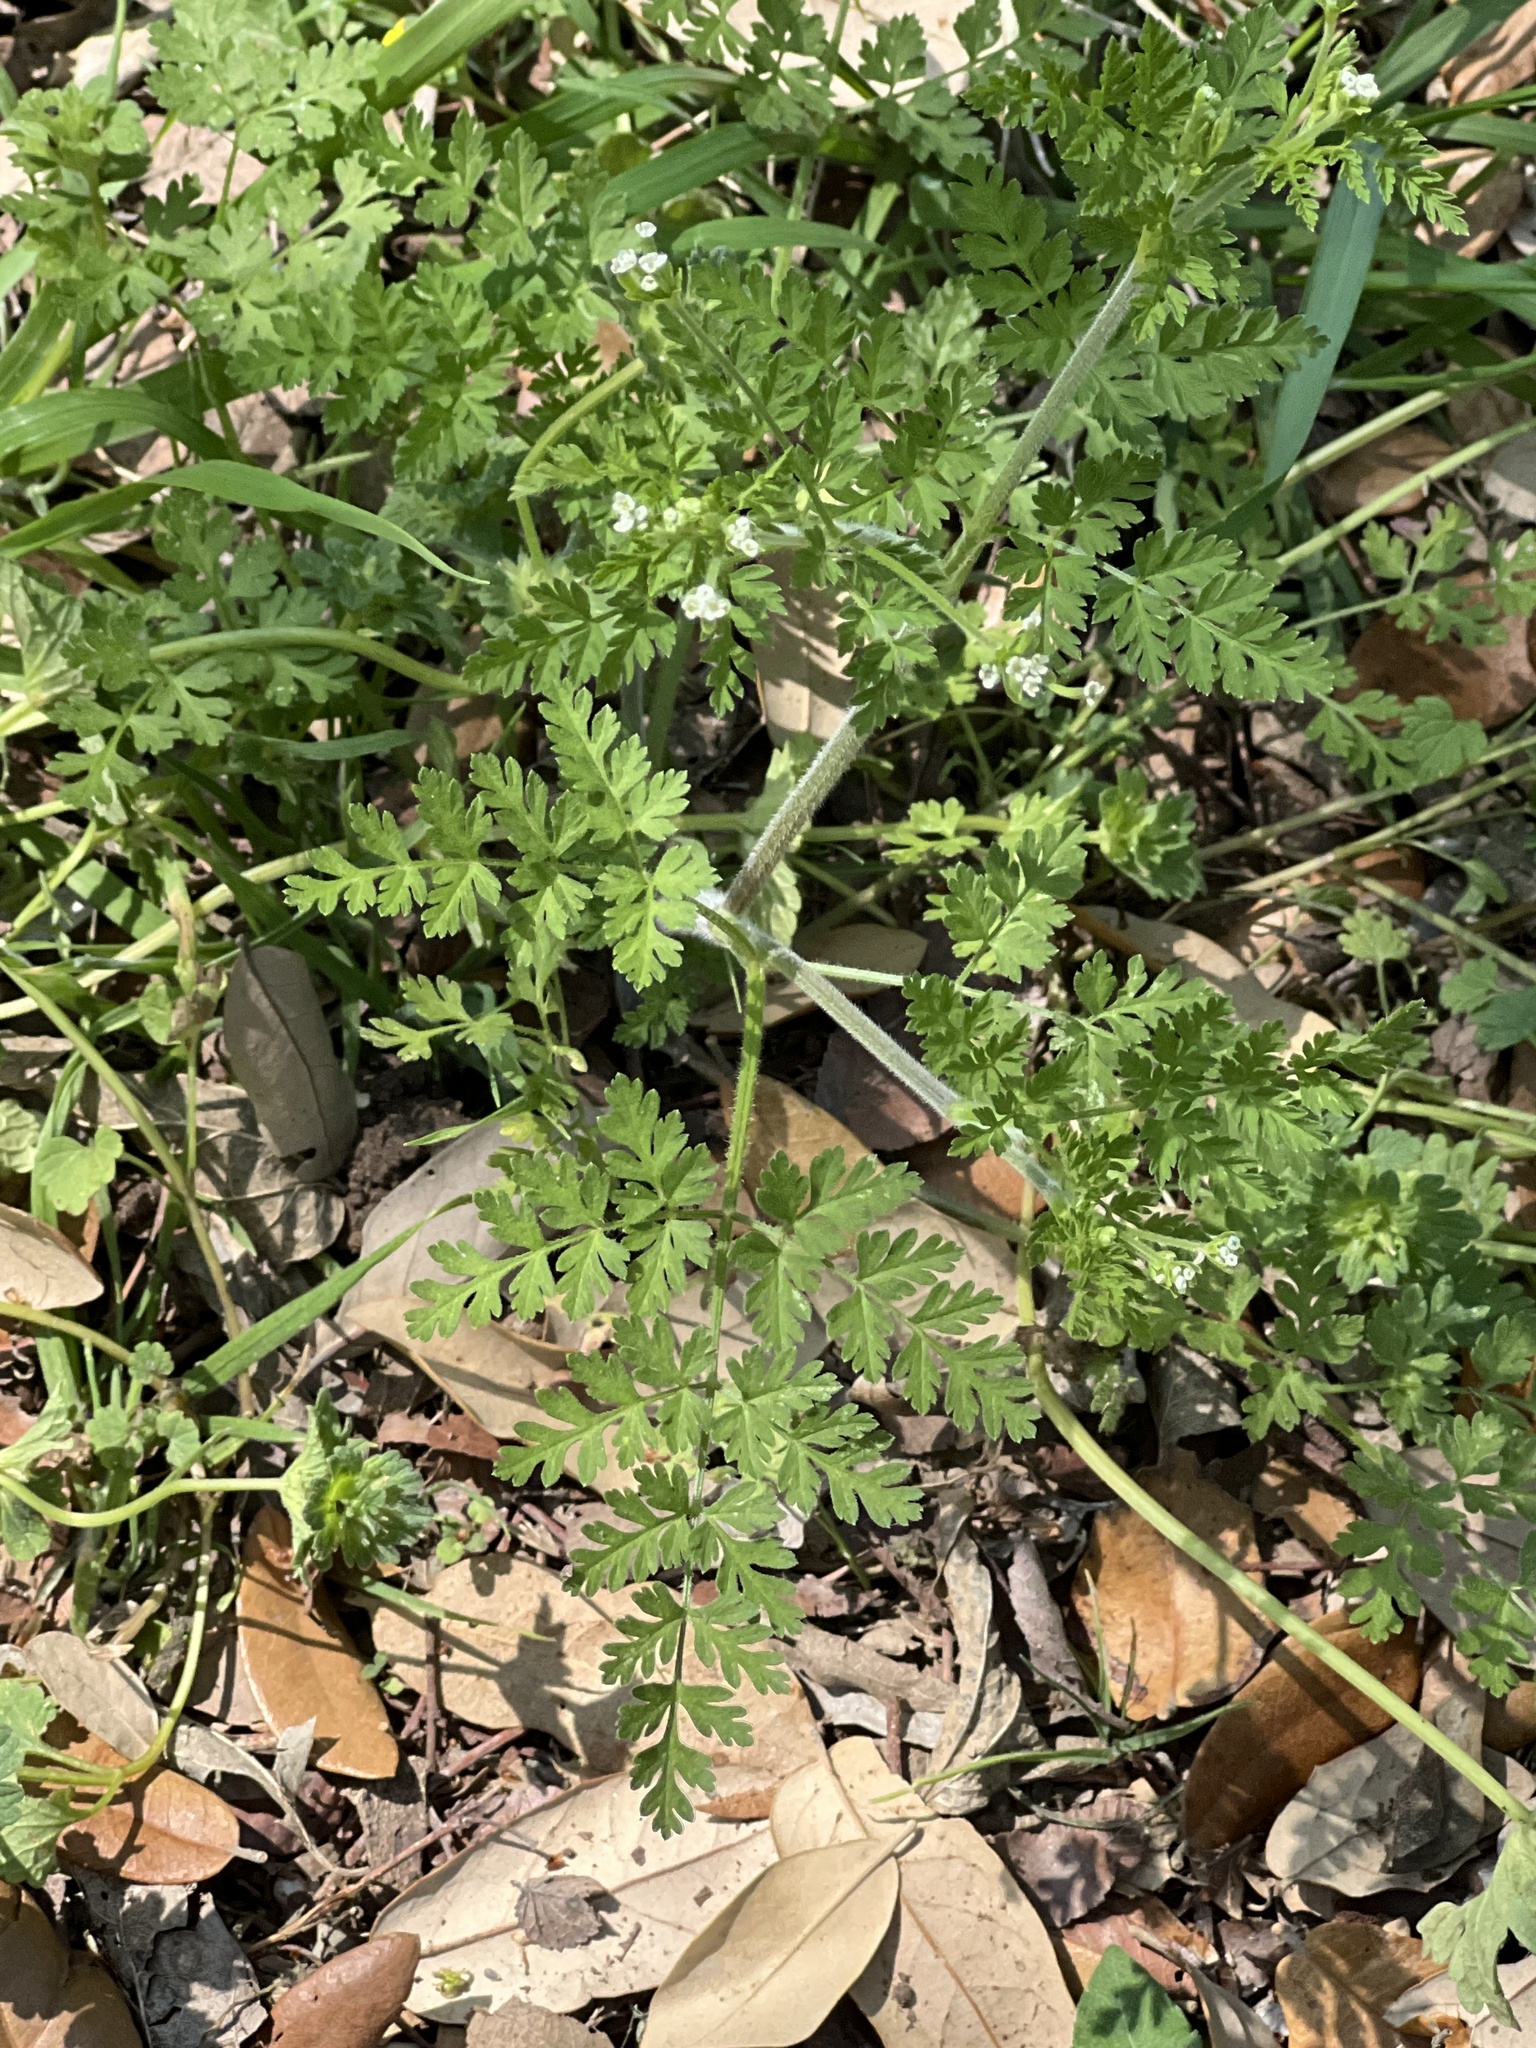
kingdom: Plantae
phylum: Tracheophyta
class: Magnoliopsida
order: Apiales
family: Apiaceae
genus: Torilis
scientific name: Torilis arvensis
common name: Spreading hedge-parsley
